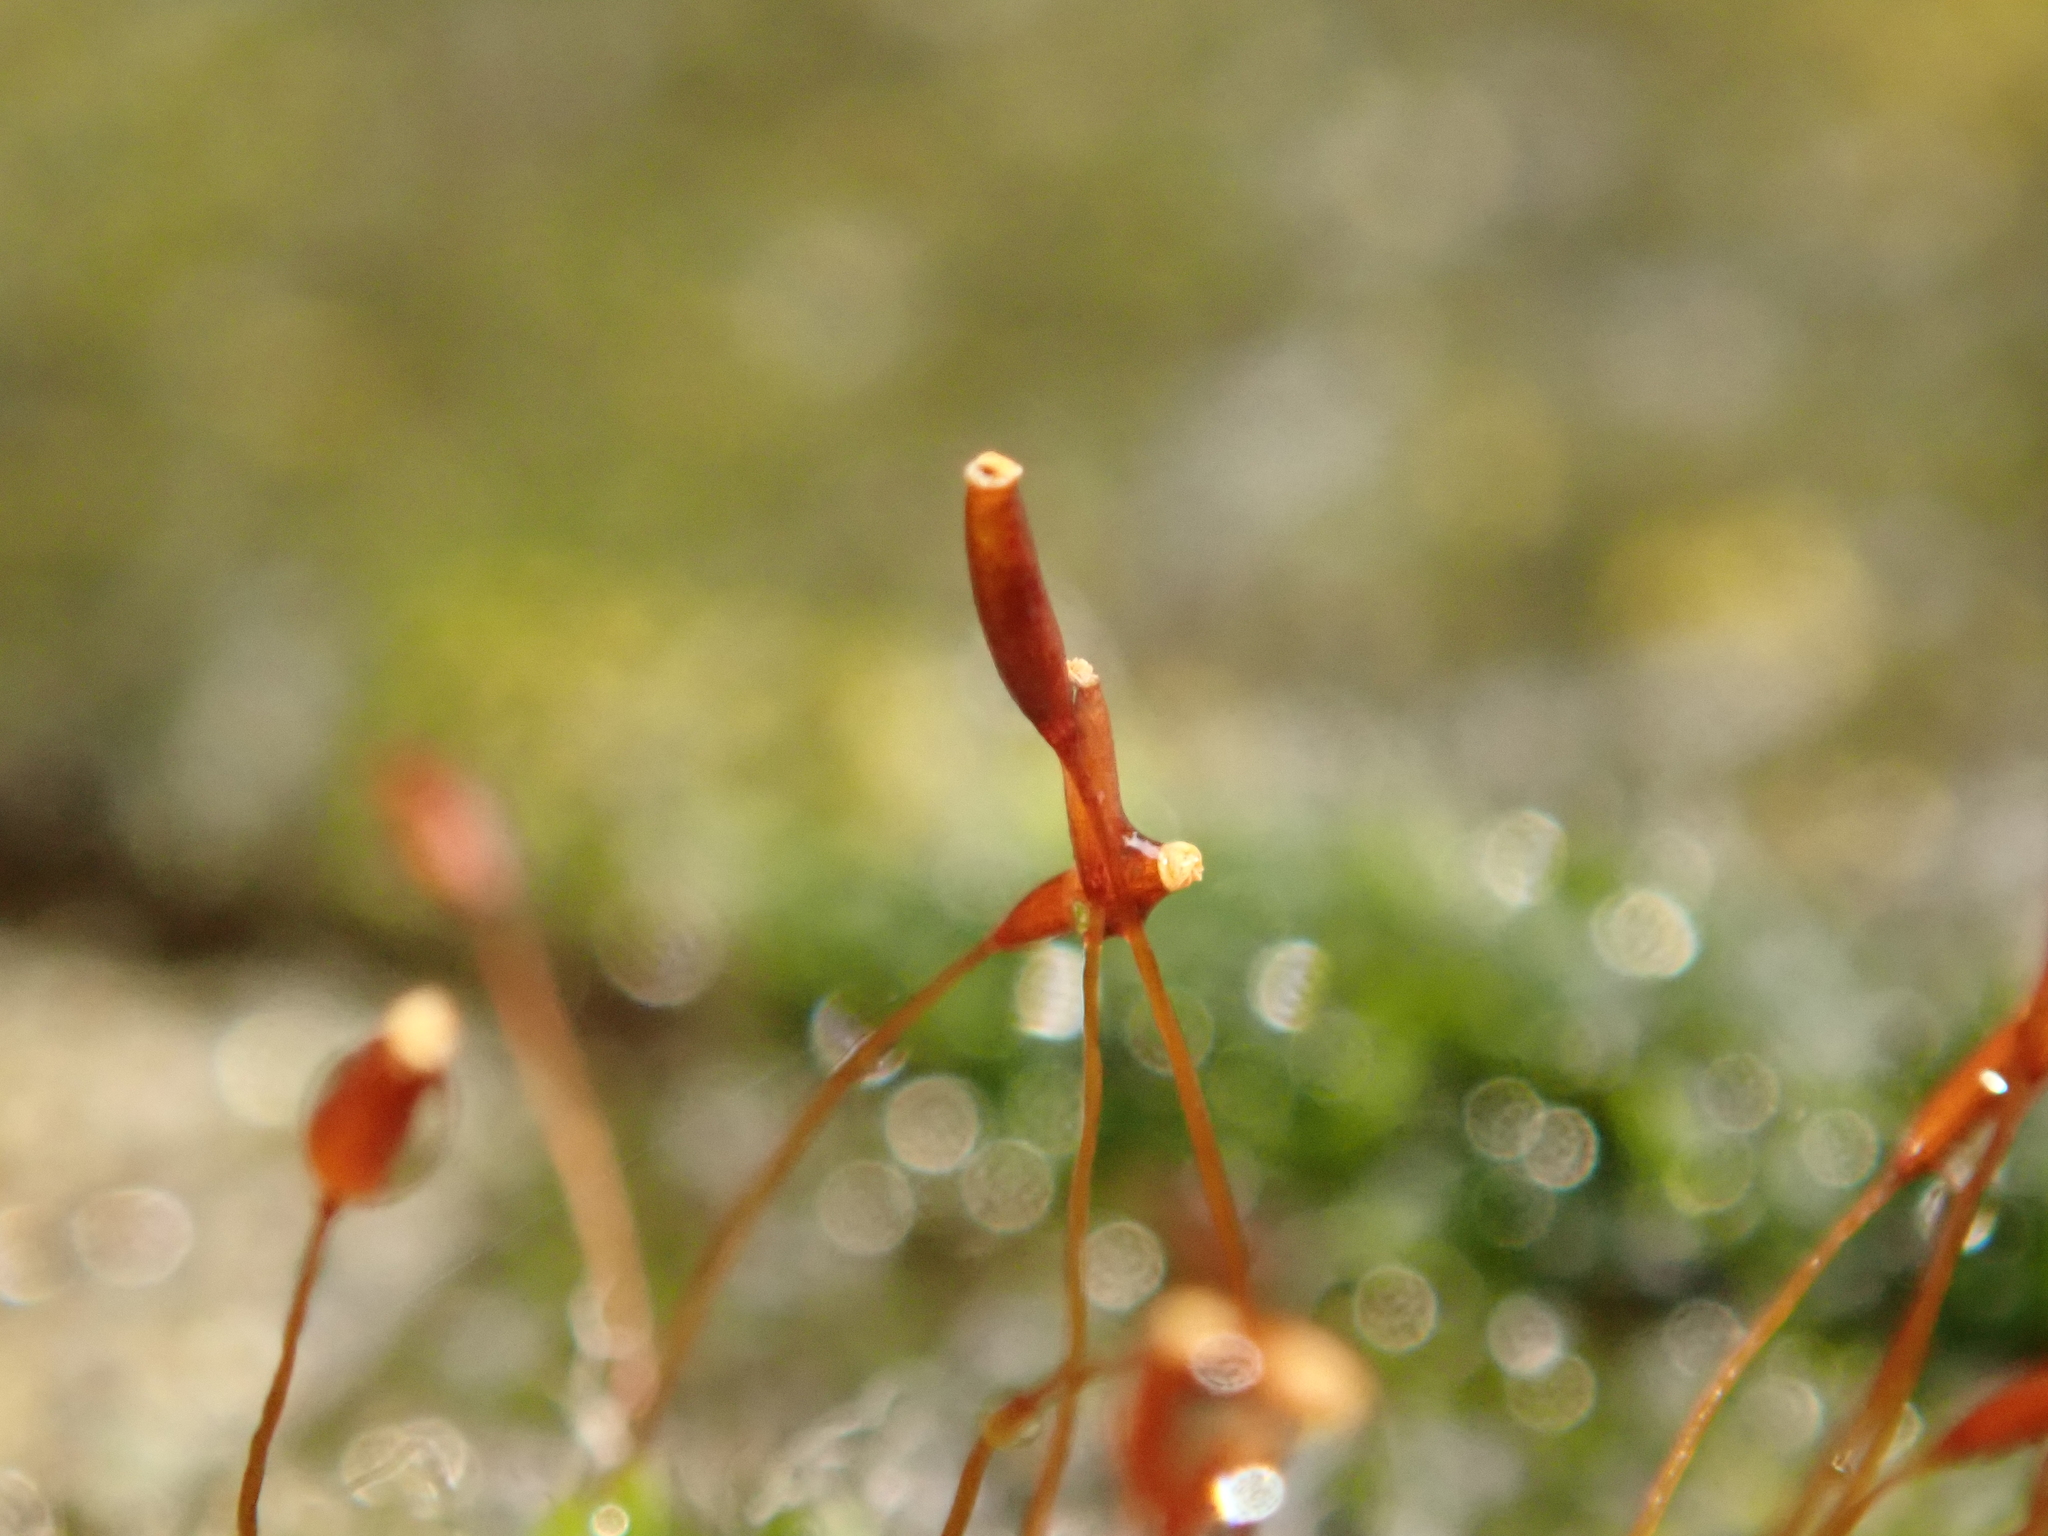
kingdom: Plantae
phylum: Bryophyta
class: Bryopsida
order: Pottiales
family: Pottiaceae
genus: Tortula
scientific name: Tortula muralis
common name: Wall screw-moss
